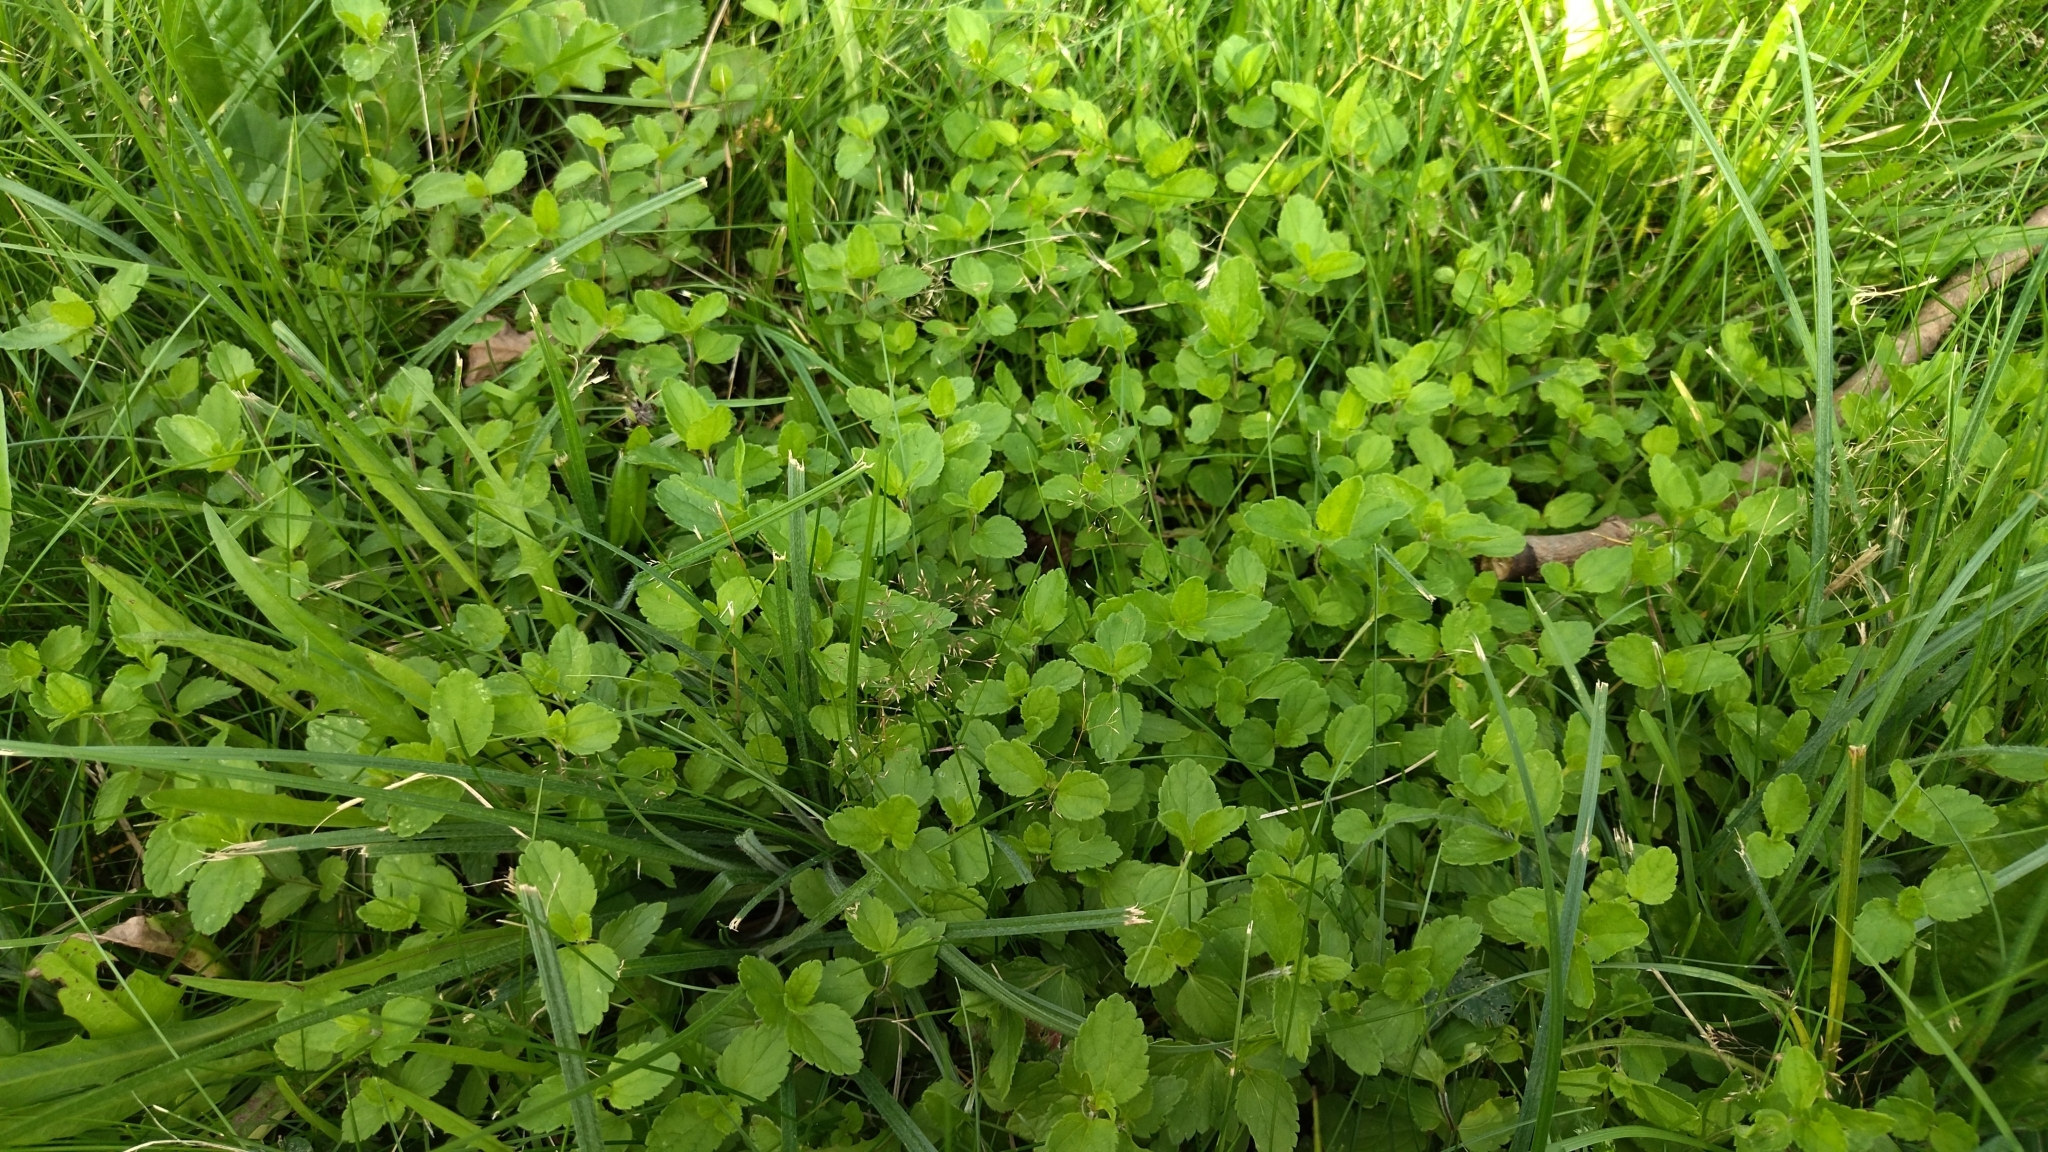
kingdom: Plantae
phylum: Tracheophyta
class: Magnoliopsida
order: Lamiales
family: Plantaginaceae
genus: Veronica
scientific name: Veronica chamaedrys
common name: Germander speedwell
